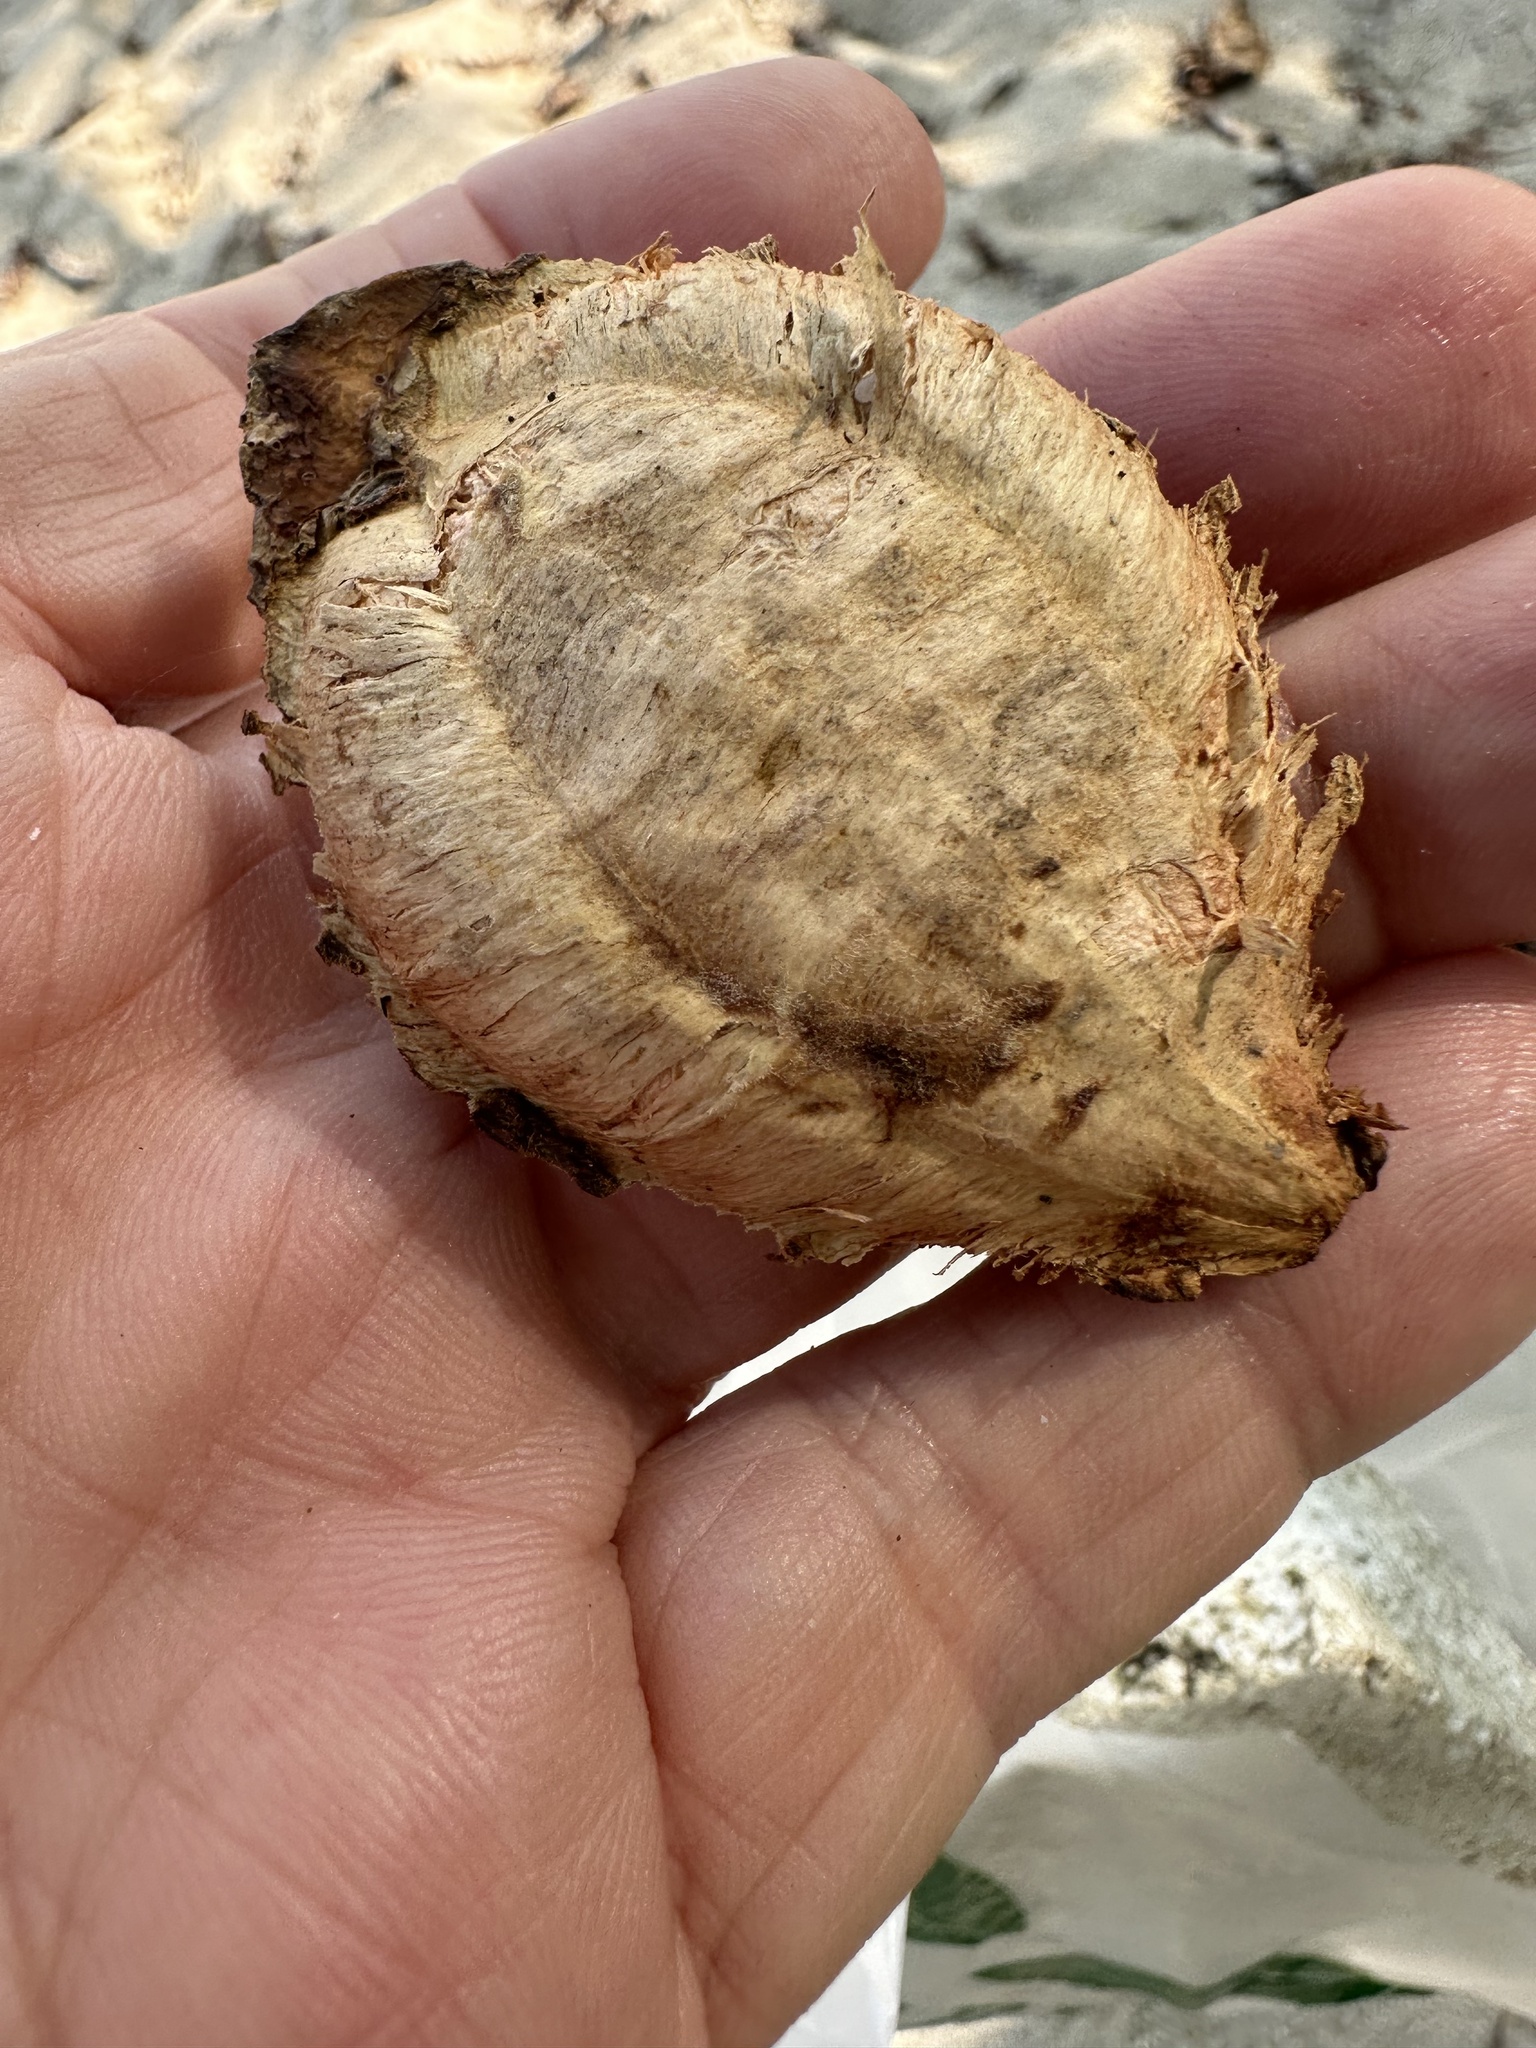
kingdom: Plantae
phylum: Tracheophyta
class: Magnoliopsida
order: Myrtales
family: Combretaceae
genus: Terminalia
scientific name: Terminalia catappa
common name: Tropical almond
